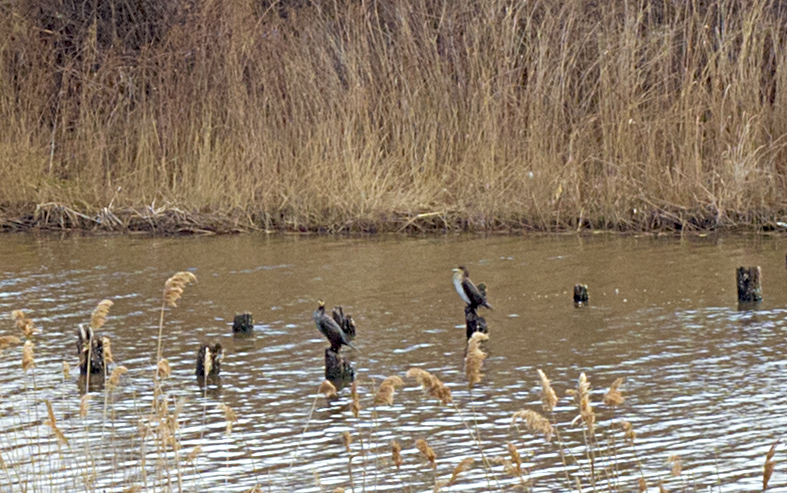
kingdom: Animalia
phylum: Chordata
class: Aves
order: Suliformes
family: Phalacrocoracidae
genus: Phalacrocorax
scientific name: Phalacrocorax carbo
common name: Great cormorant
